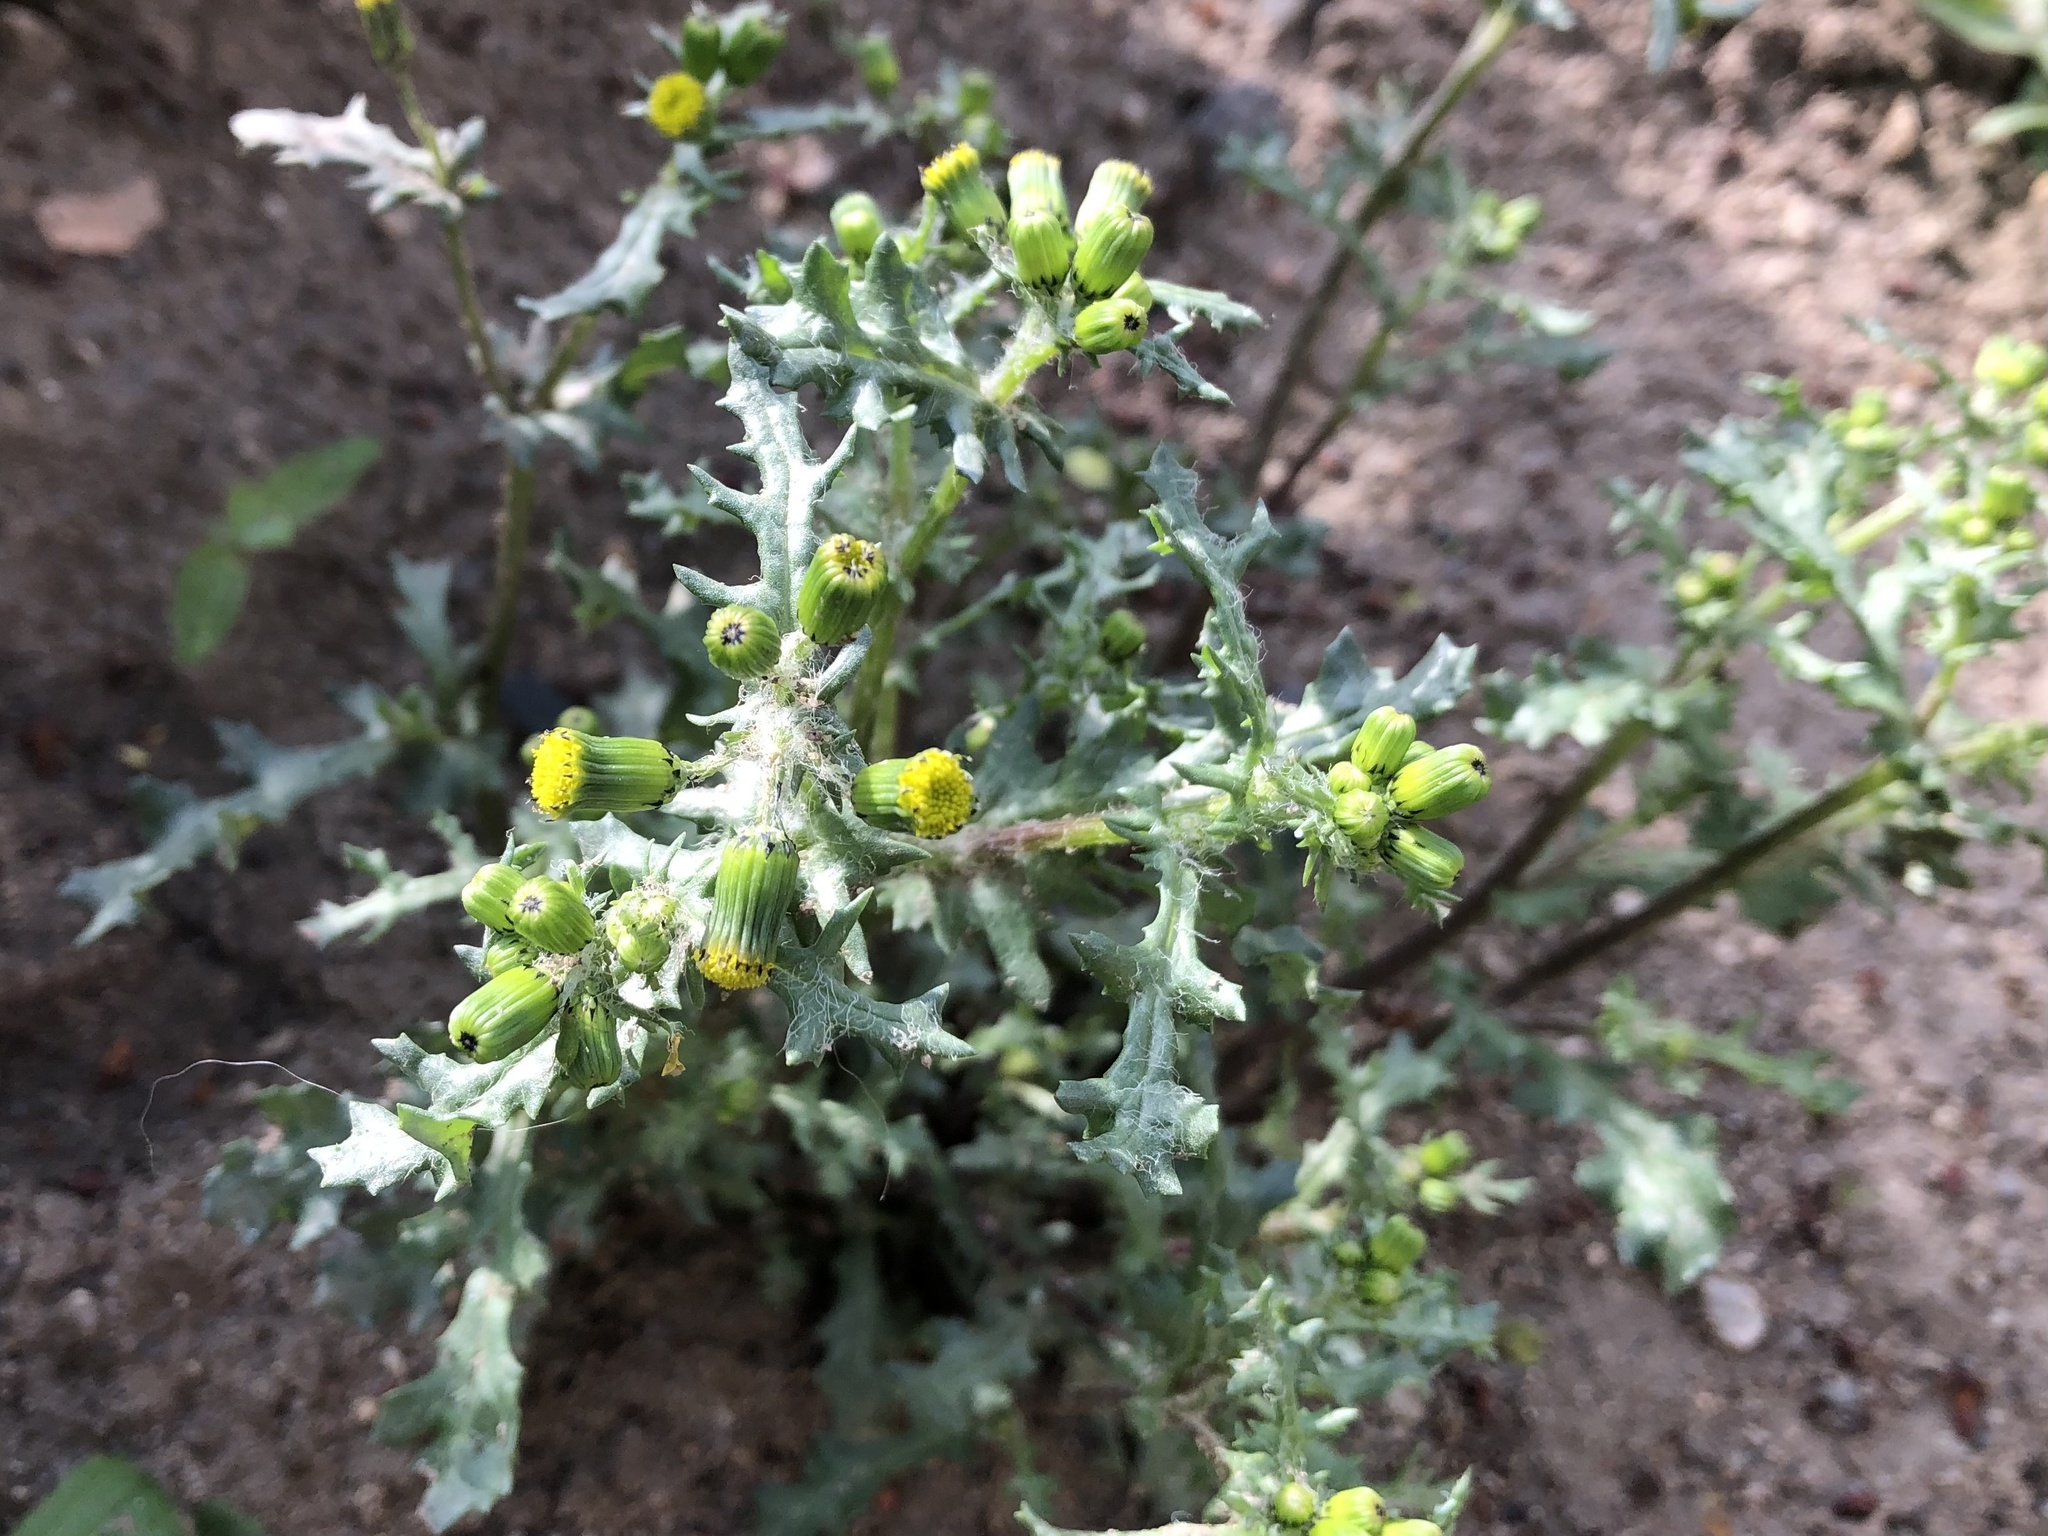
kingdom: Plantae
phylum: Tracheophyta
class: Magnoliopsida
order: Asterales
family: Asteraceae
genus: Senecio
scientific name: Senecio vulgaris
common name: Old-man-in-the-spring
